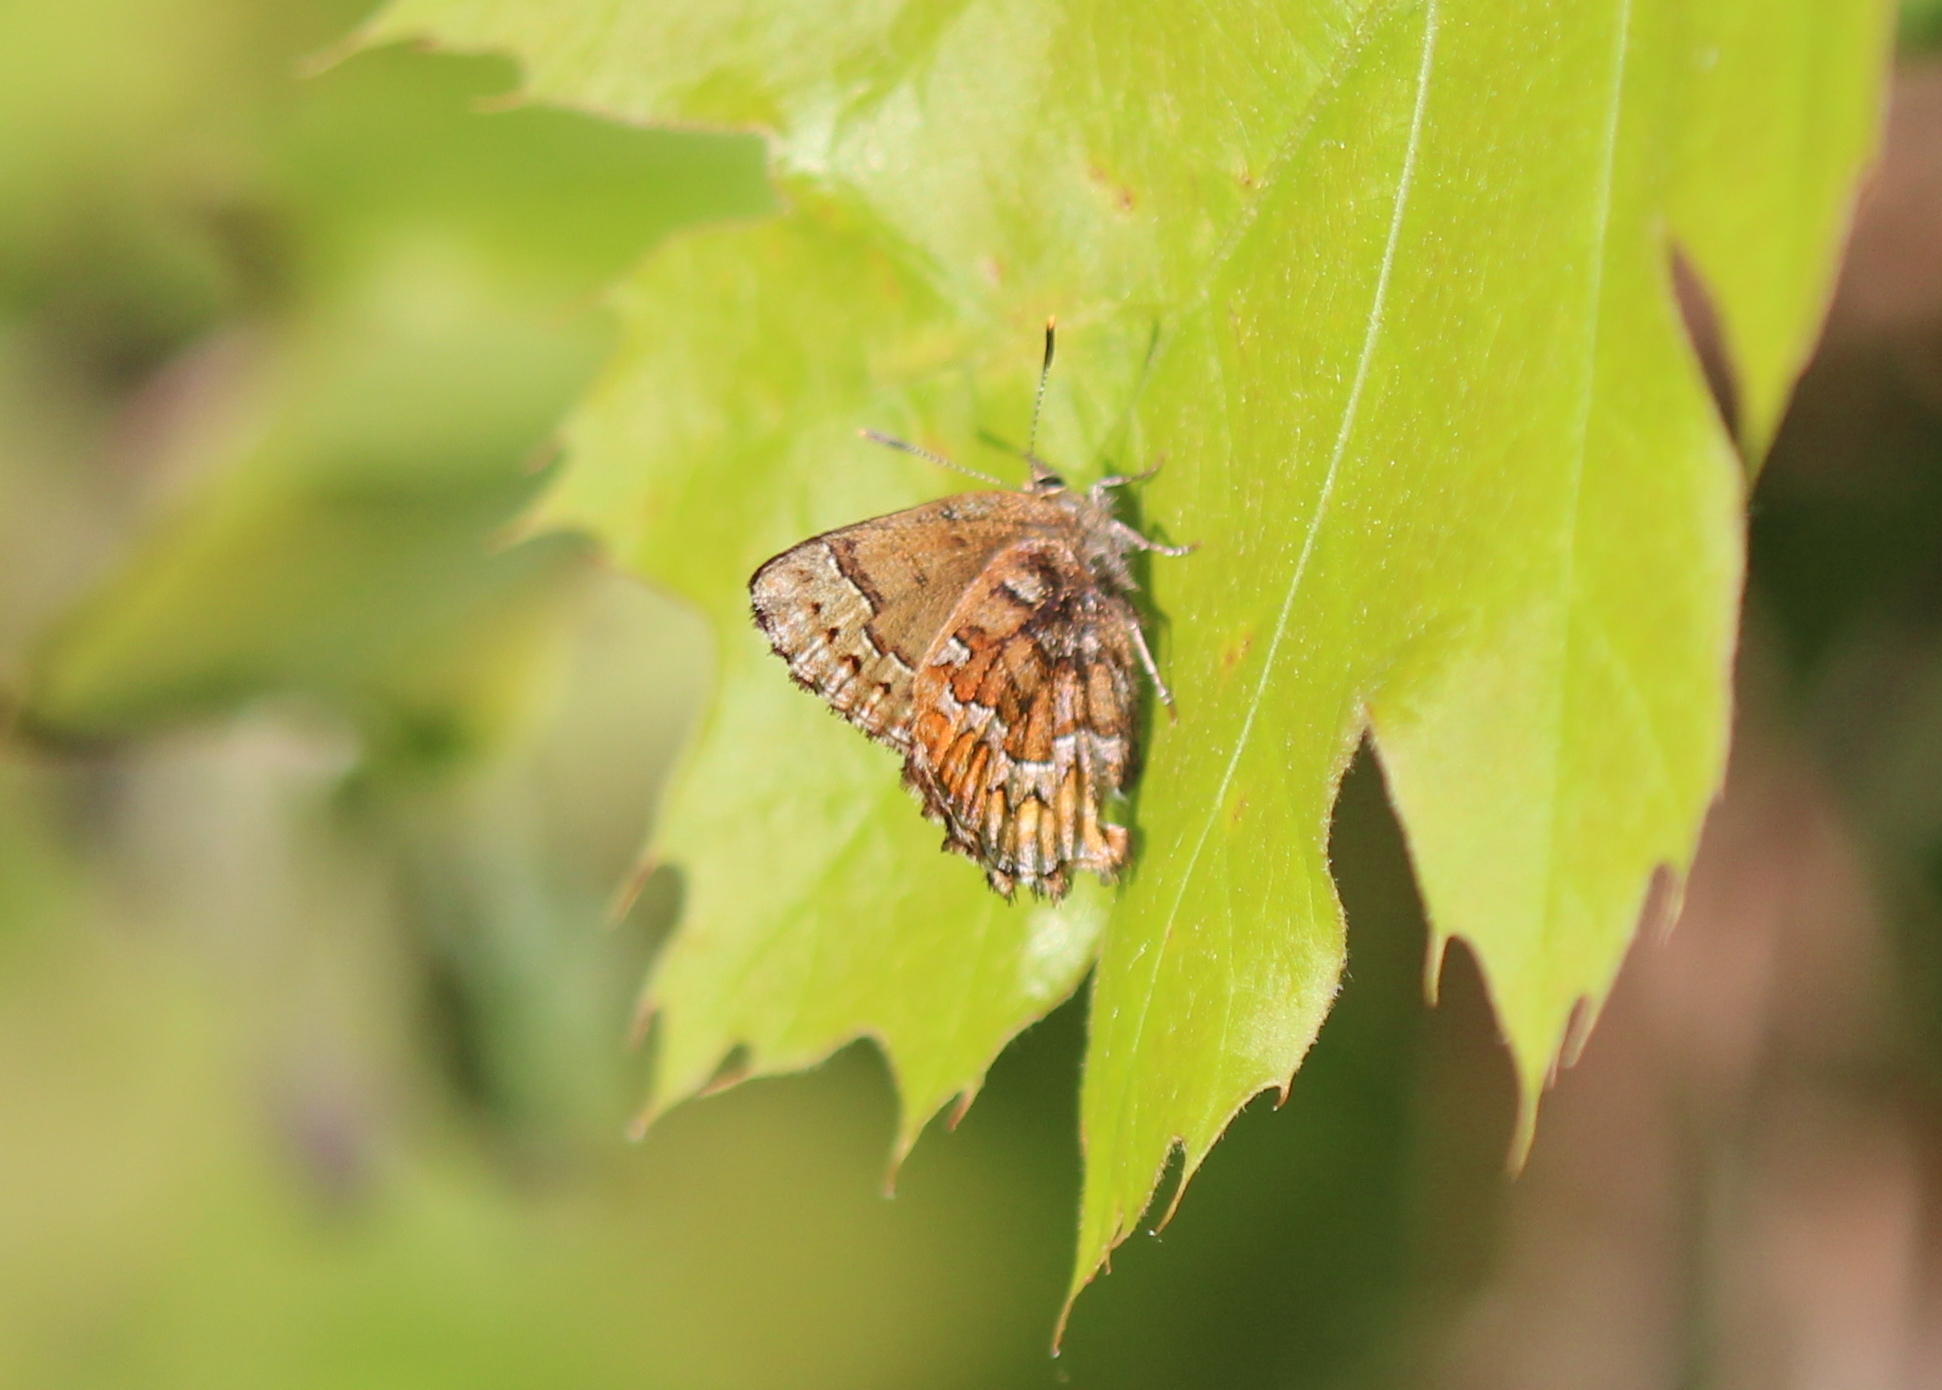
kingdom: Animalia
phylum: Arthropoda
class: Insecta
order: Lepidoptera
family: Lycaenidae
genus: Incisalia
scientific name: Incisalia niphon
